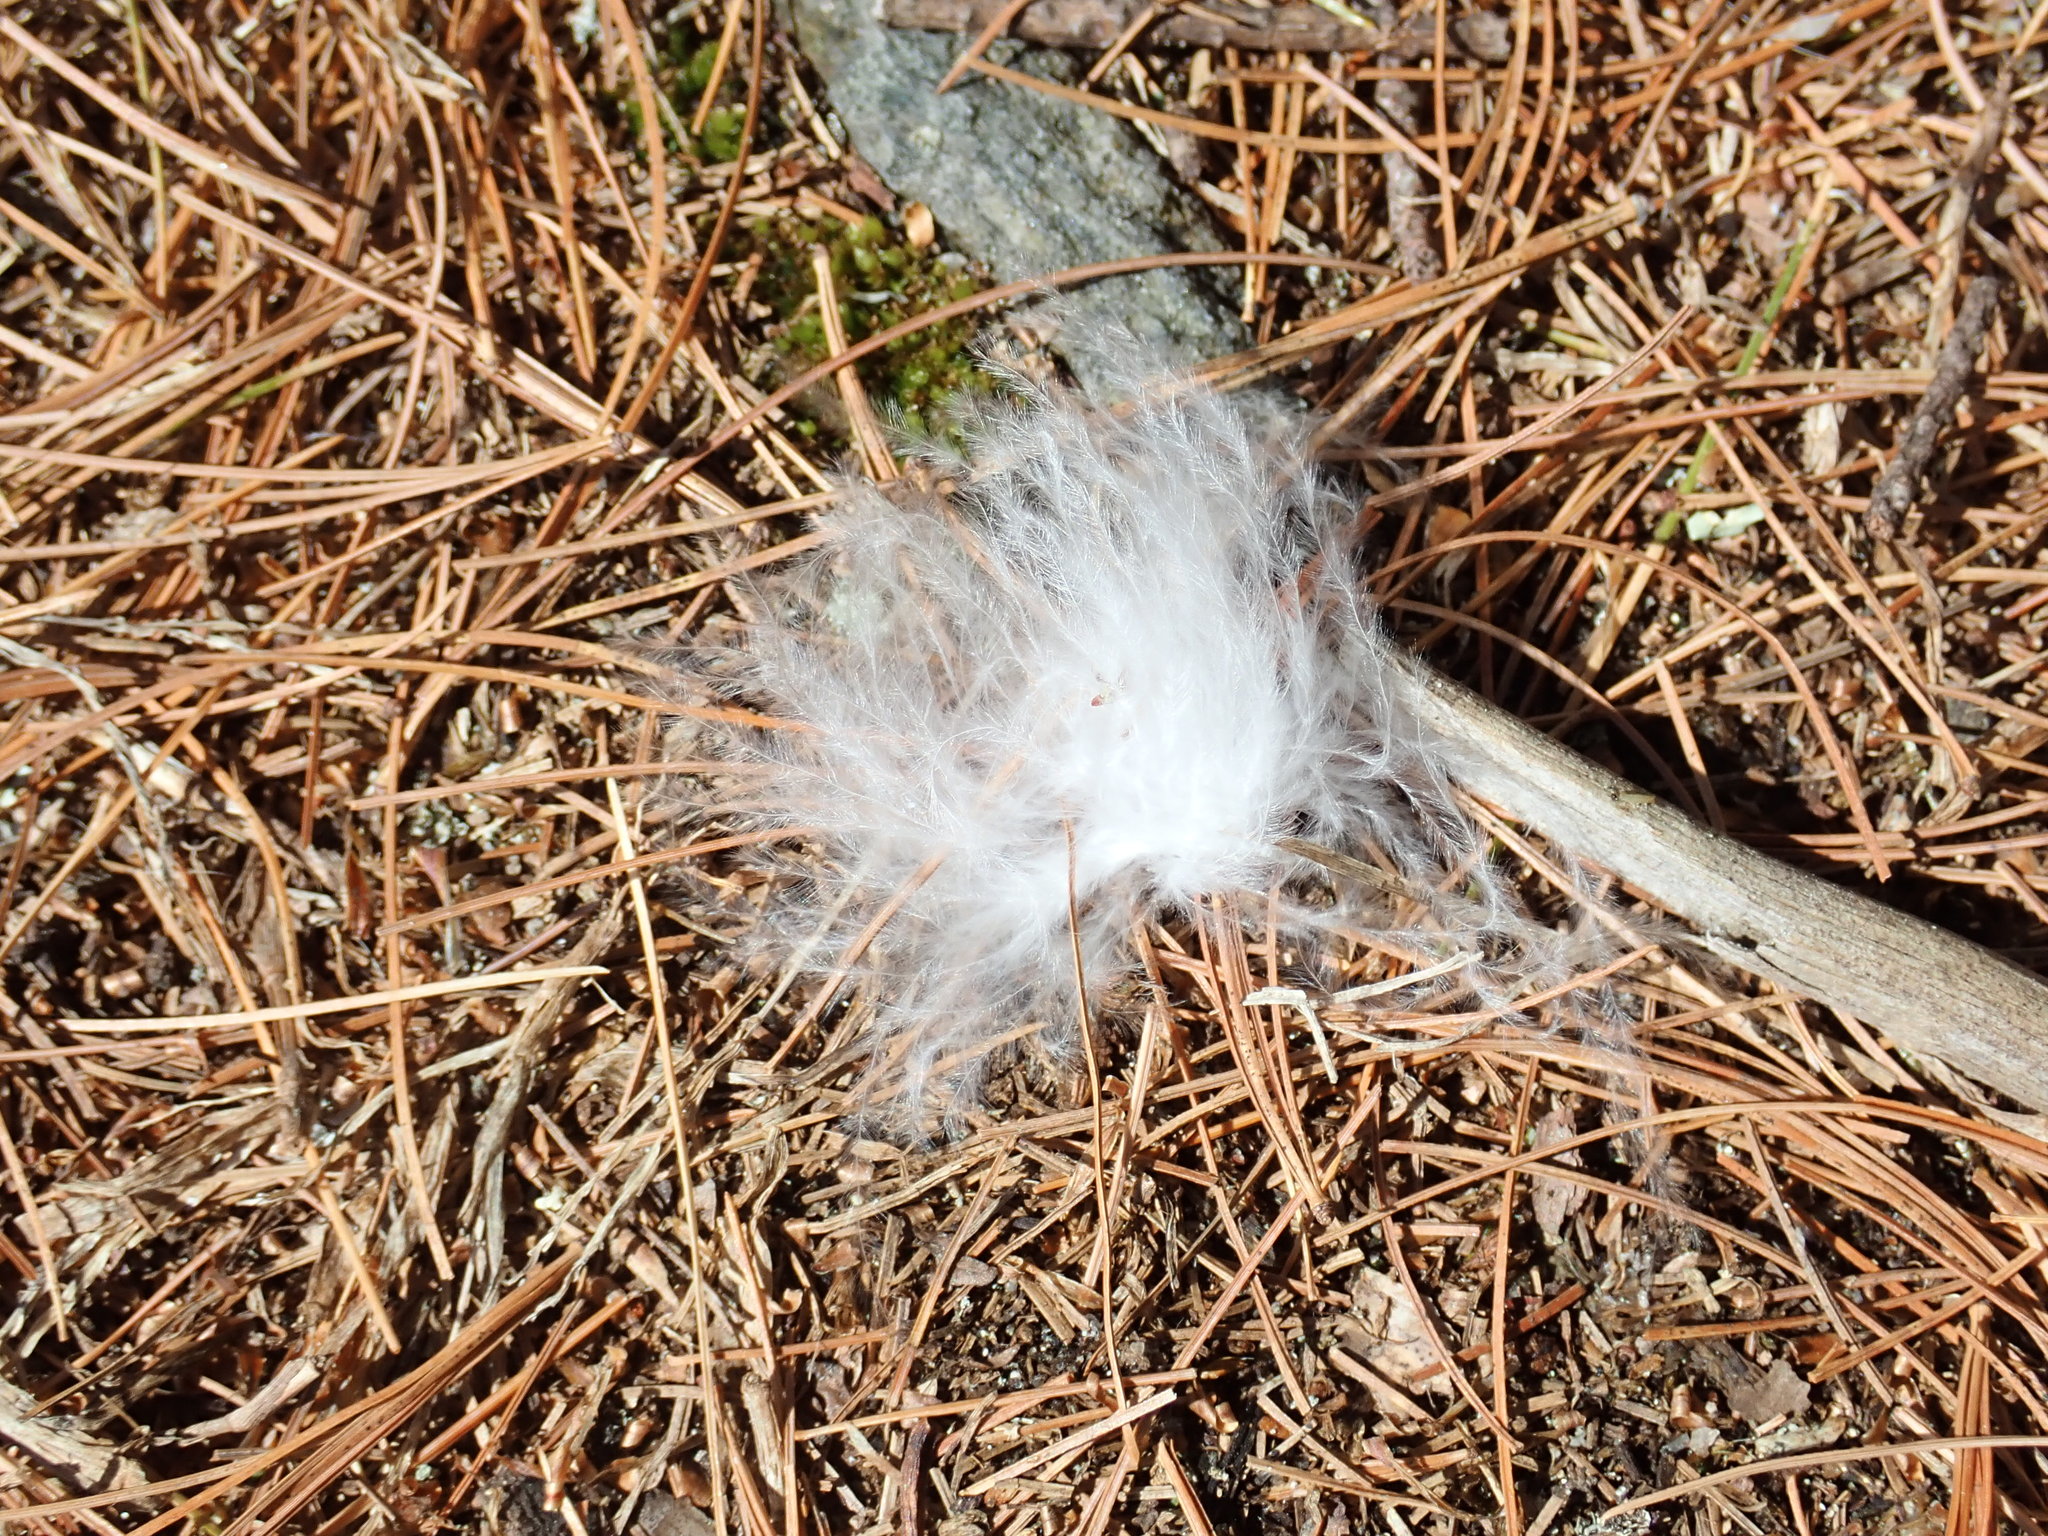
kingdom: Animalia
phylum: Chordata
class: Aves
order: Accipitriformes
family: Cathartidae
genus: Cathartes
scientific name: Cathartes aura
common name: Turkey vulture
